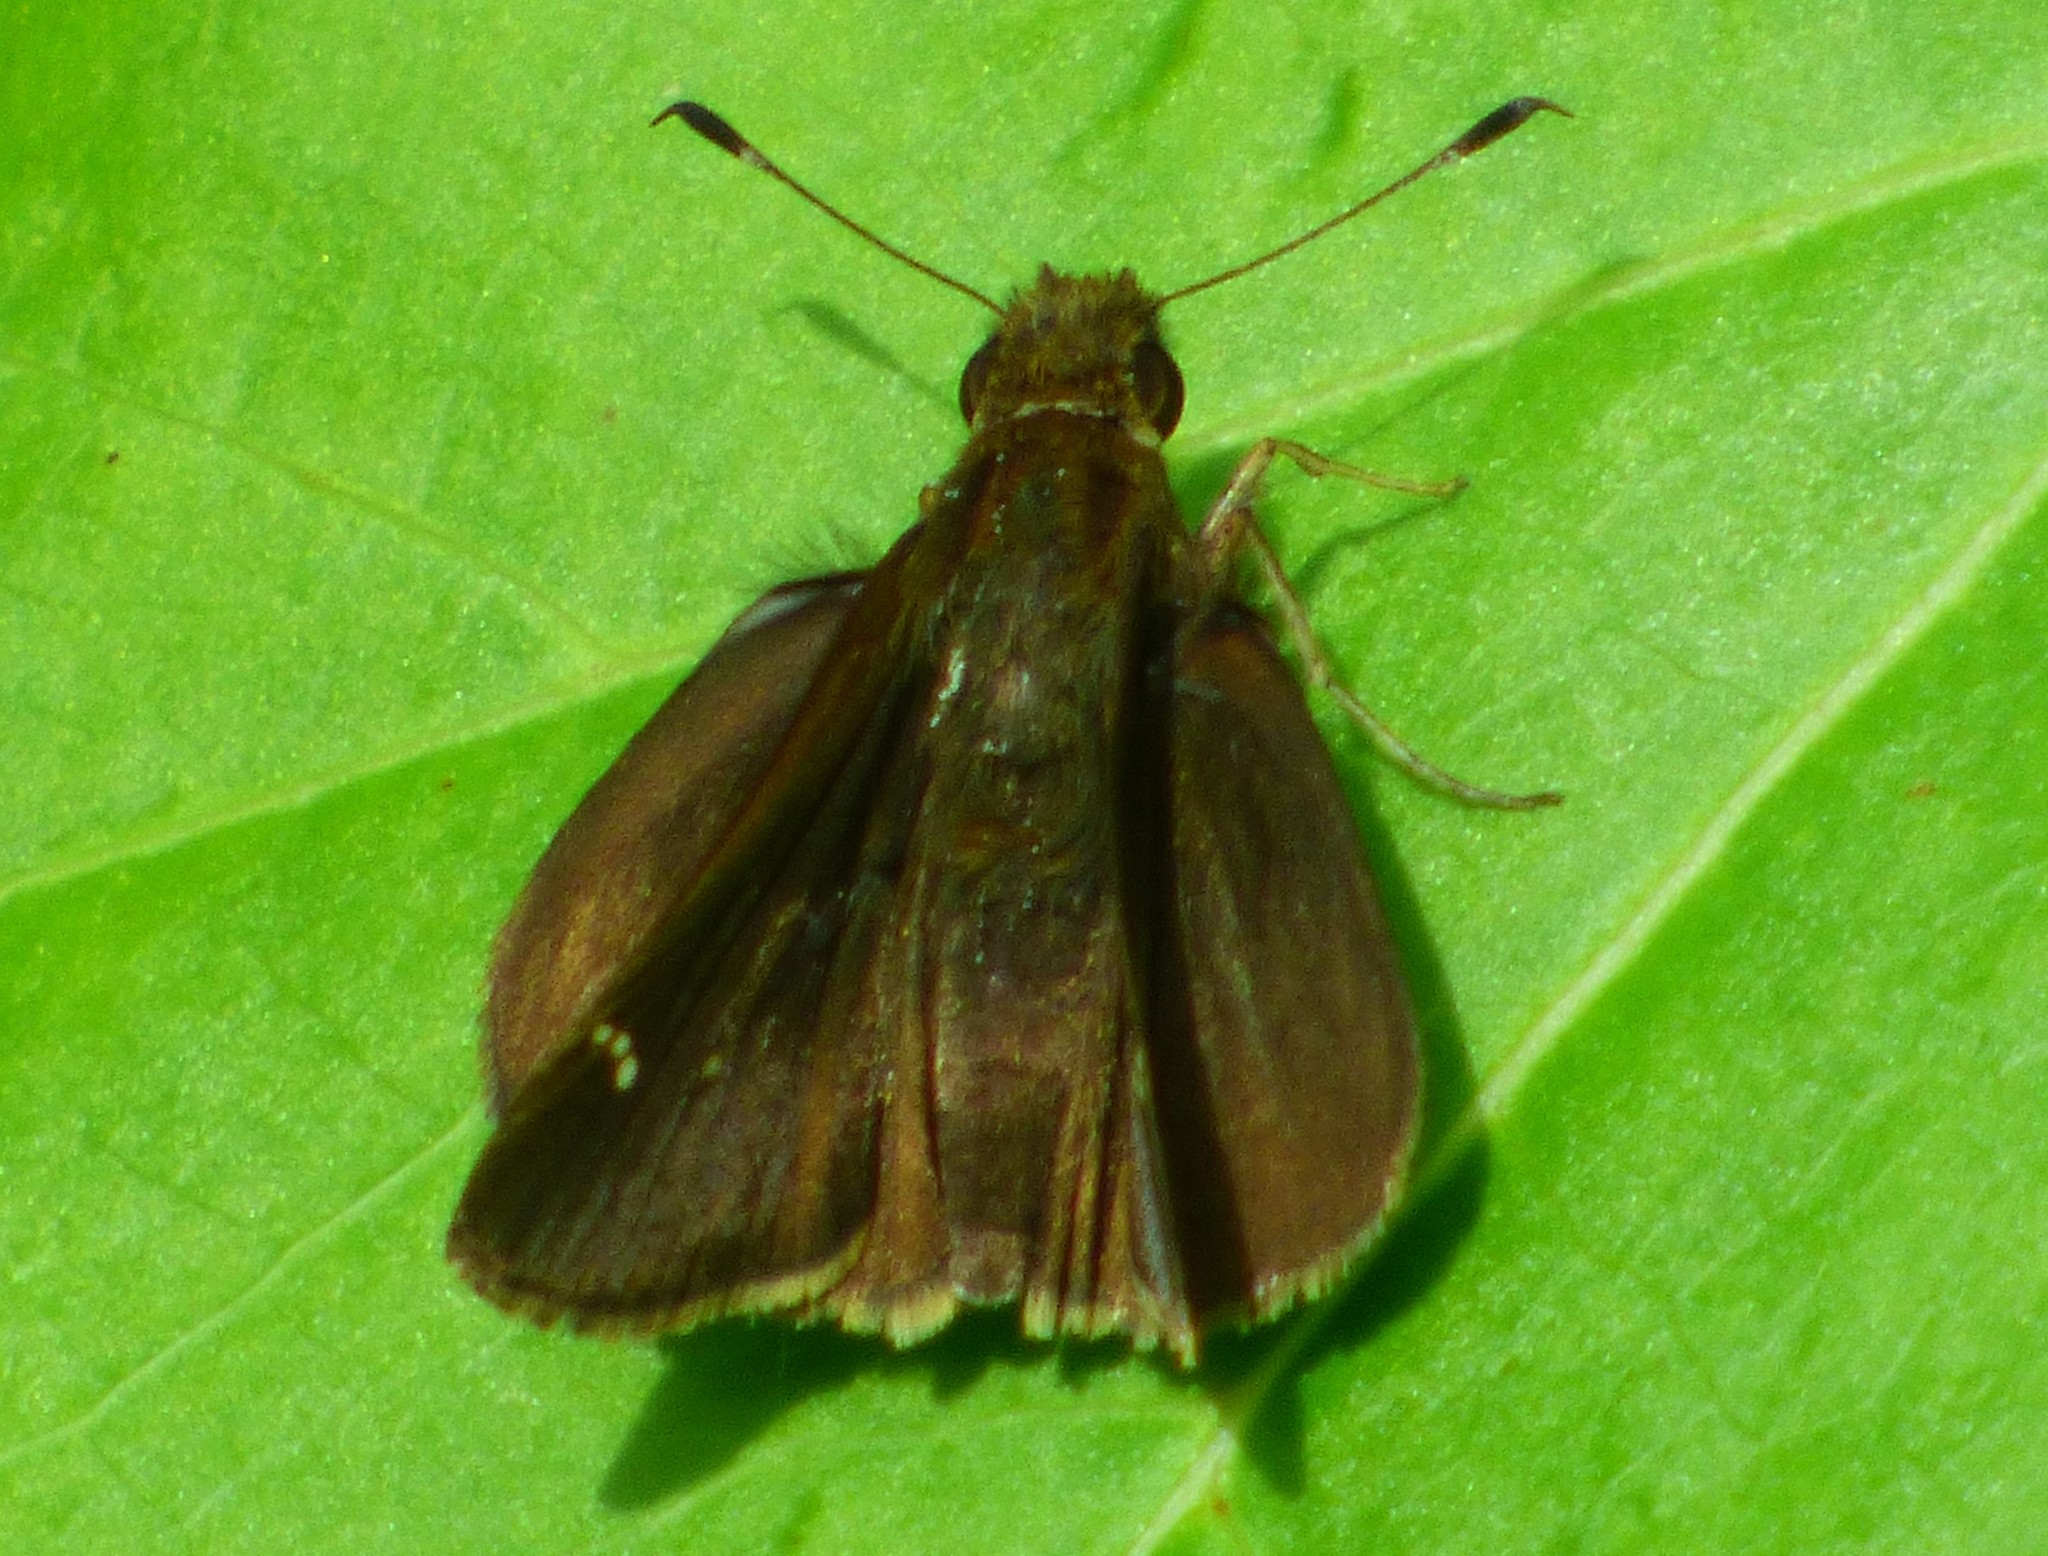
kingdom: Animalia
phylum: Arthropoda
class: Insecta
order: Lepidoptera
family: Hesperiidae
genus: Lerema
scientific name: Lerema accius
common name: Clouded skipper
